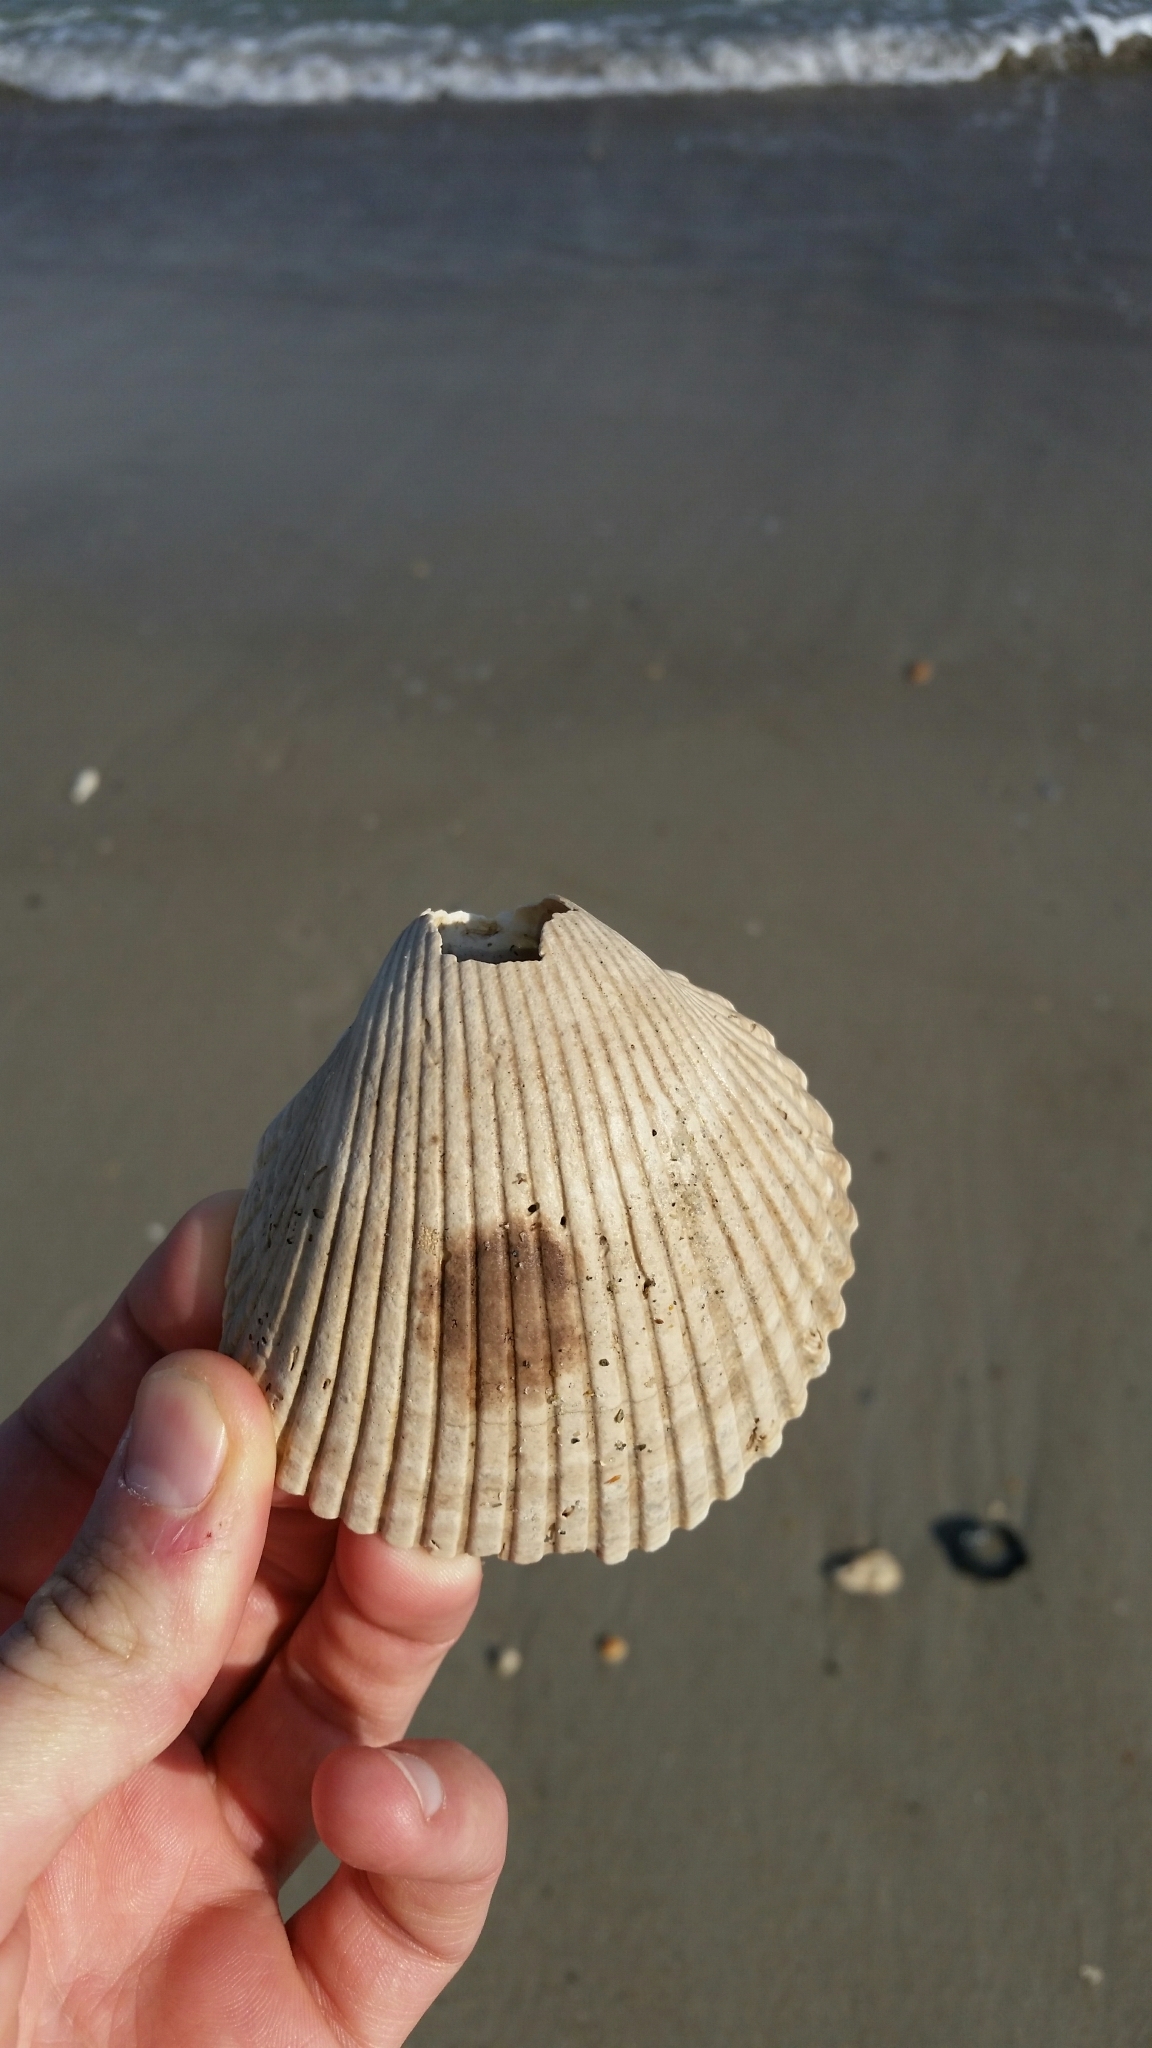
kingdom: Animalia
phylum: Mollusca
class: Bivalvia
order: Cardiida
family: Cardiidae
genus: Dinocardium
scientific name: Dinocardium robustum
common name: Atlantic giant cockle
